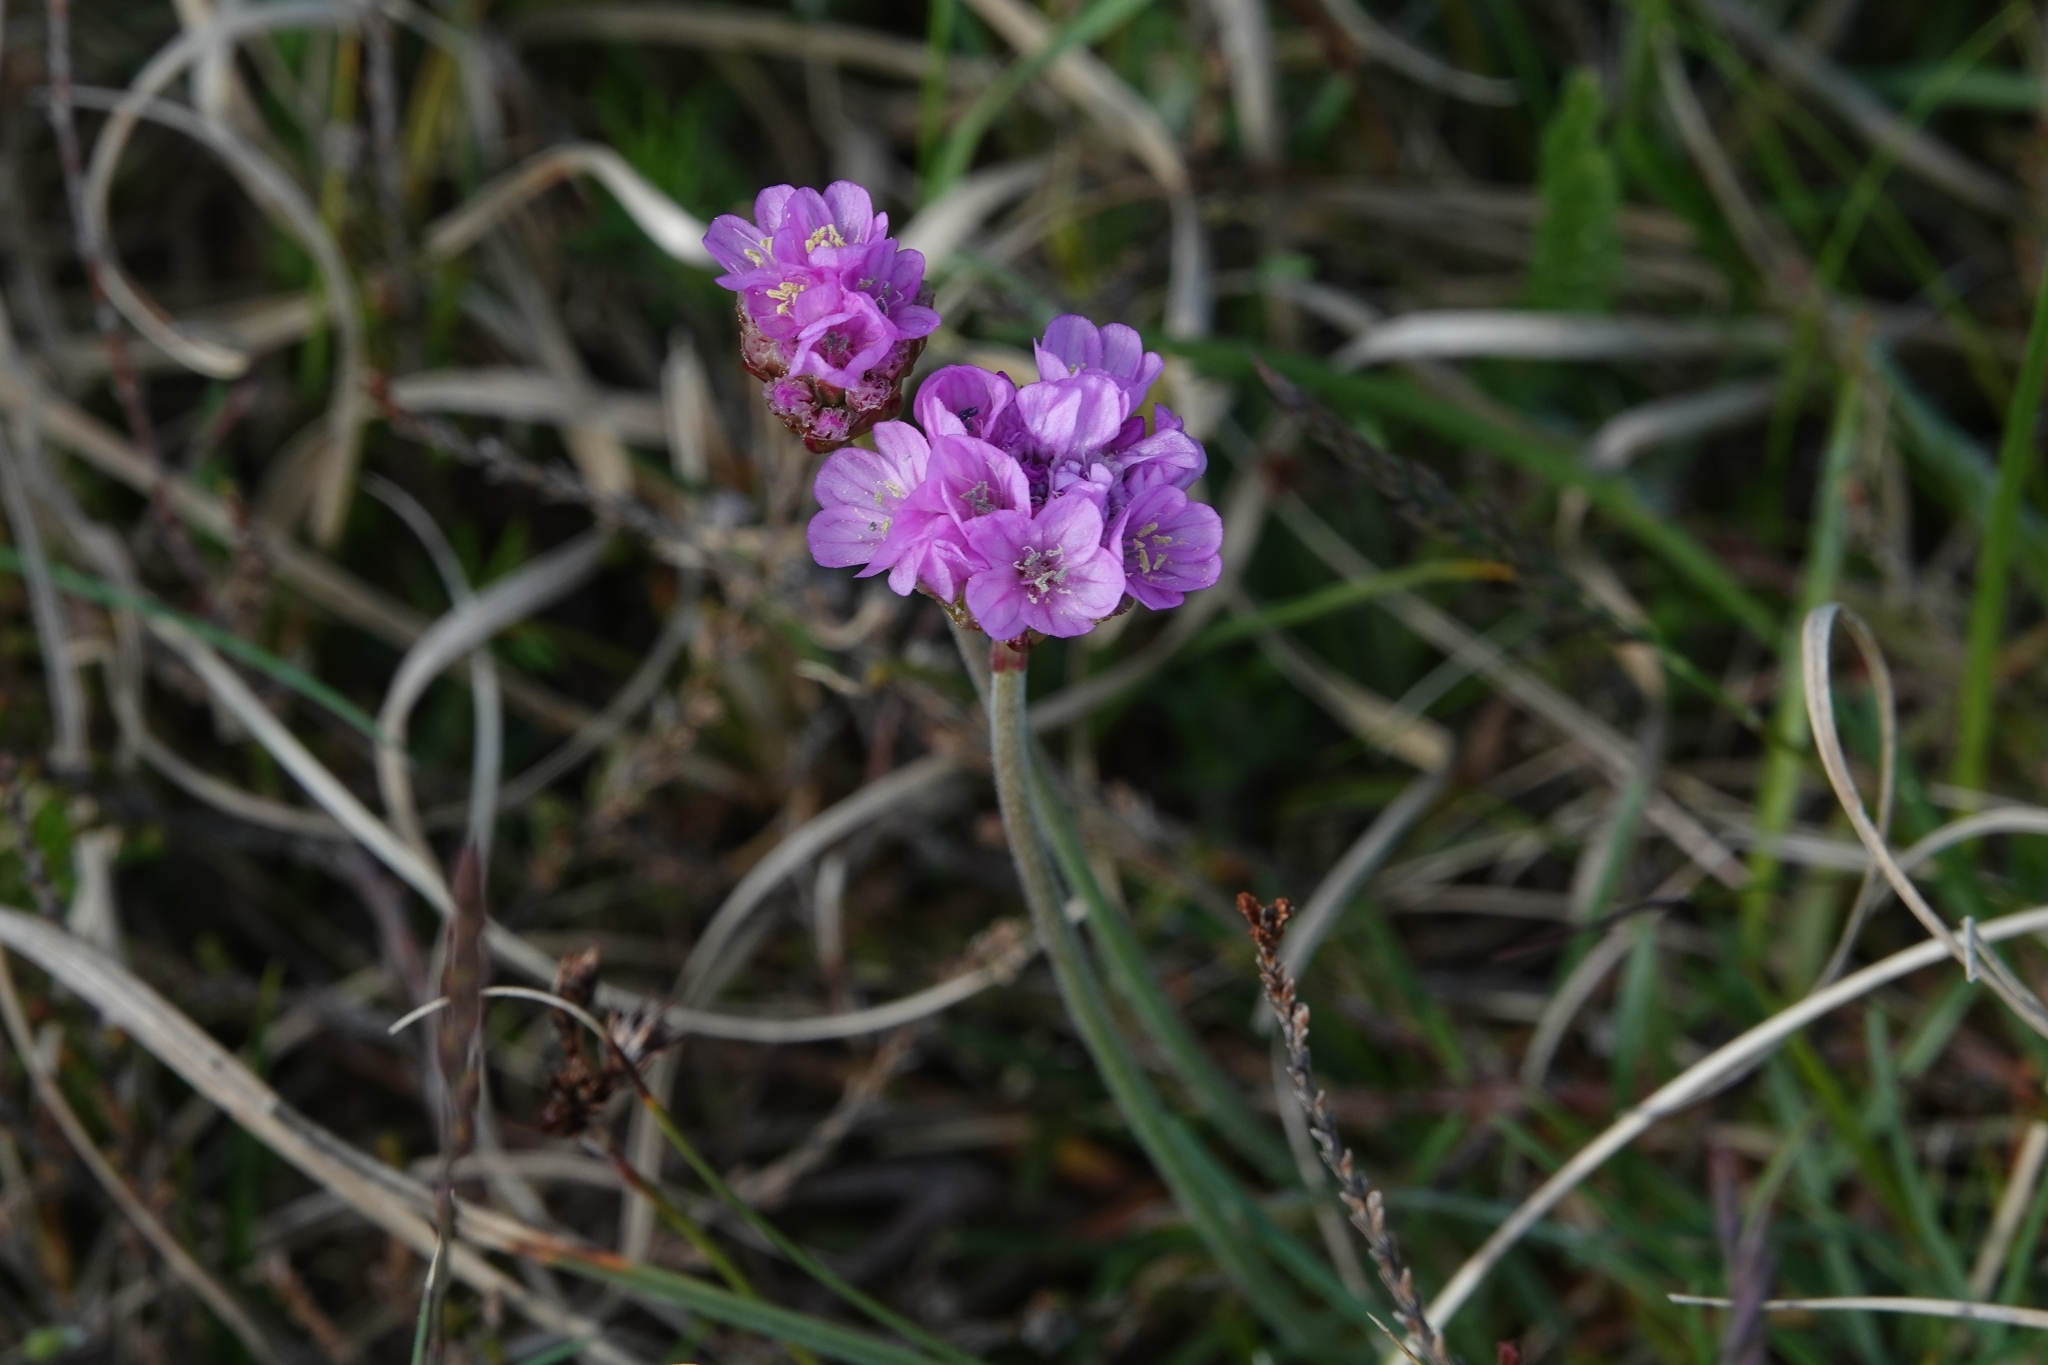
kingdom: Plantae
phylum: Tracheophyta
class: Magnoliopsida
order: Caryophyllales
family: Plumbaginaceae
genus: Armeria
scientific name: Armeria maritima
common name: Thrift
